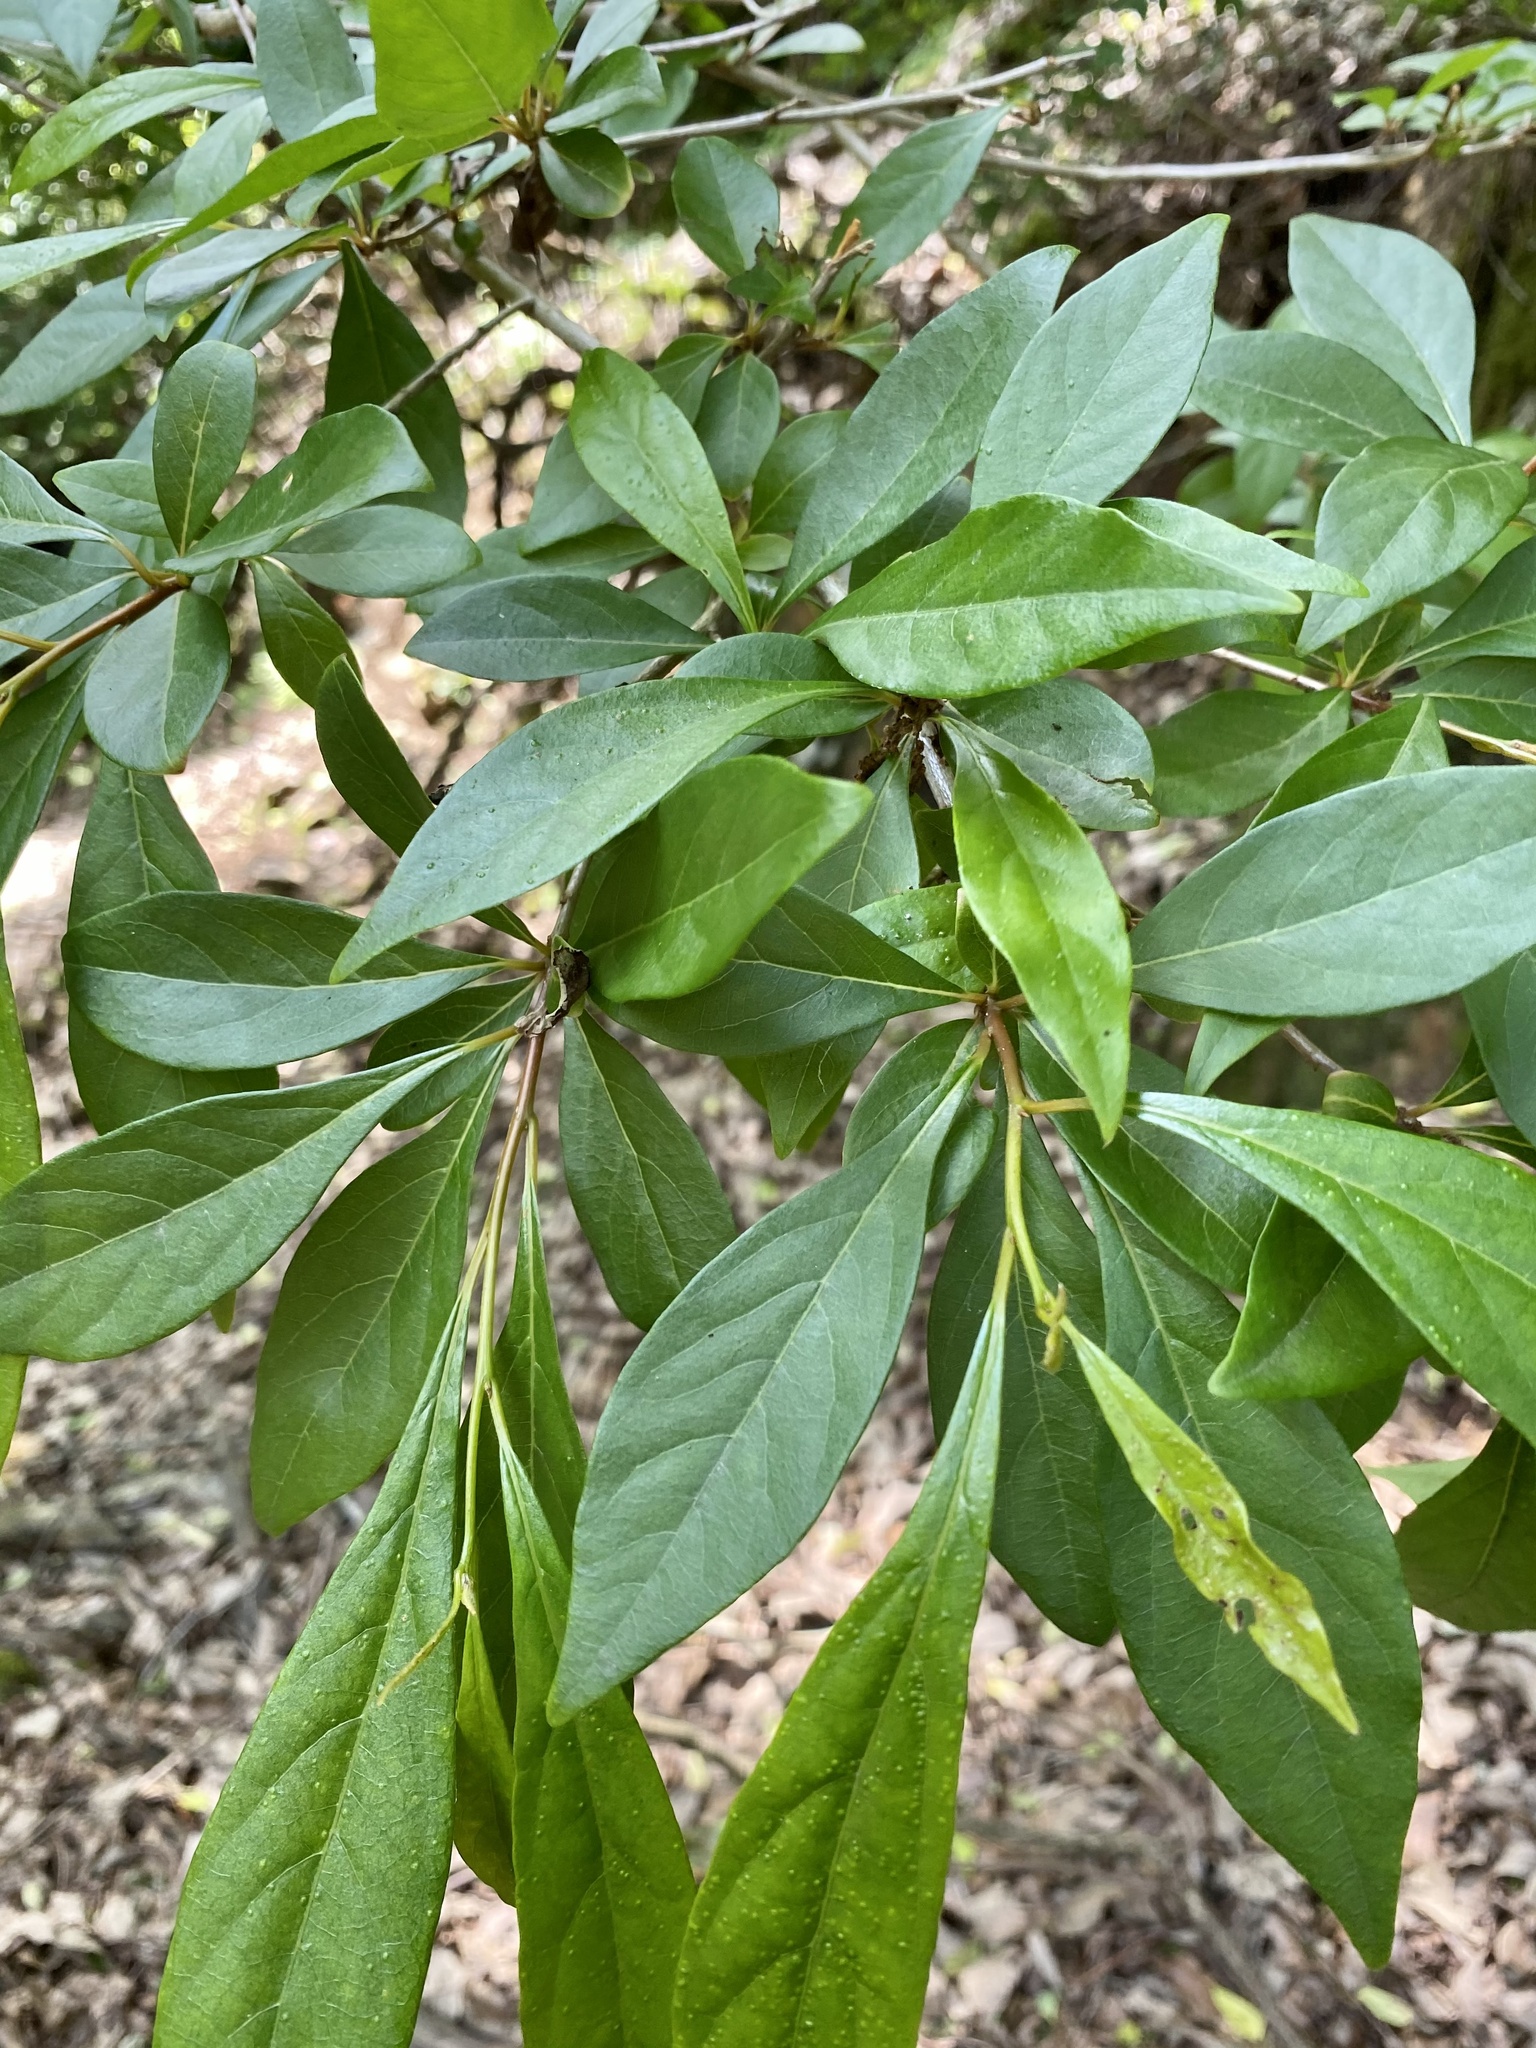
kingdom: Plantae
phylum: Tracheophyta
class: Magnoliopsida
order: Laurales
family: Lauraceae
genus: Lindera
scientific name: Lindera erythrocarpa
